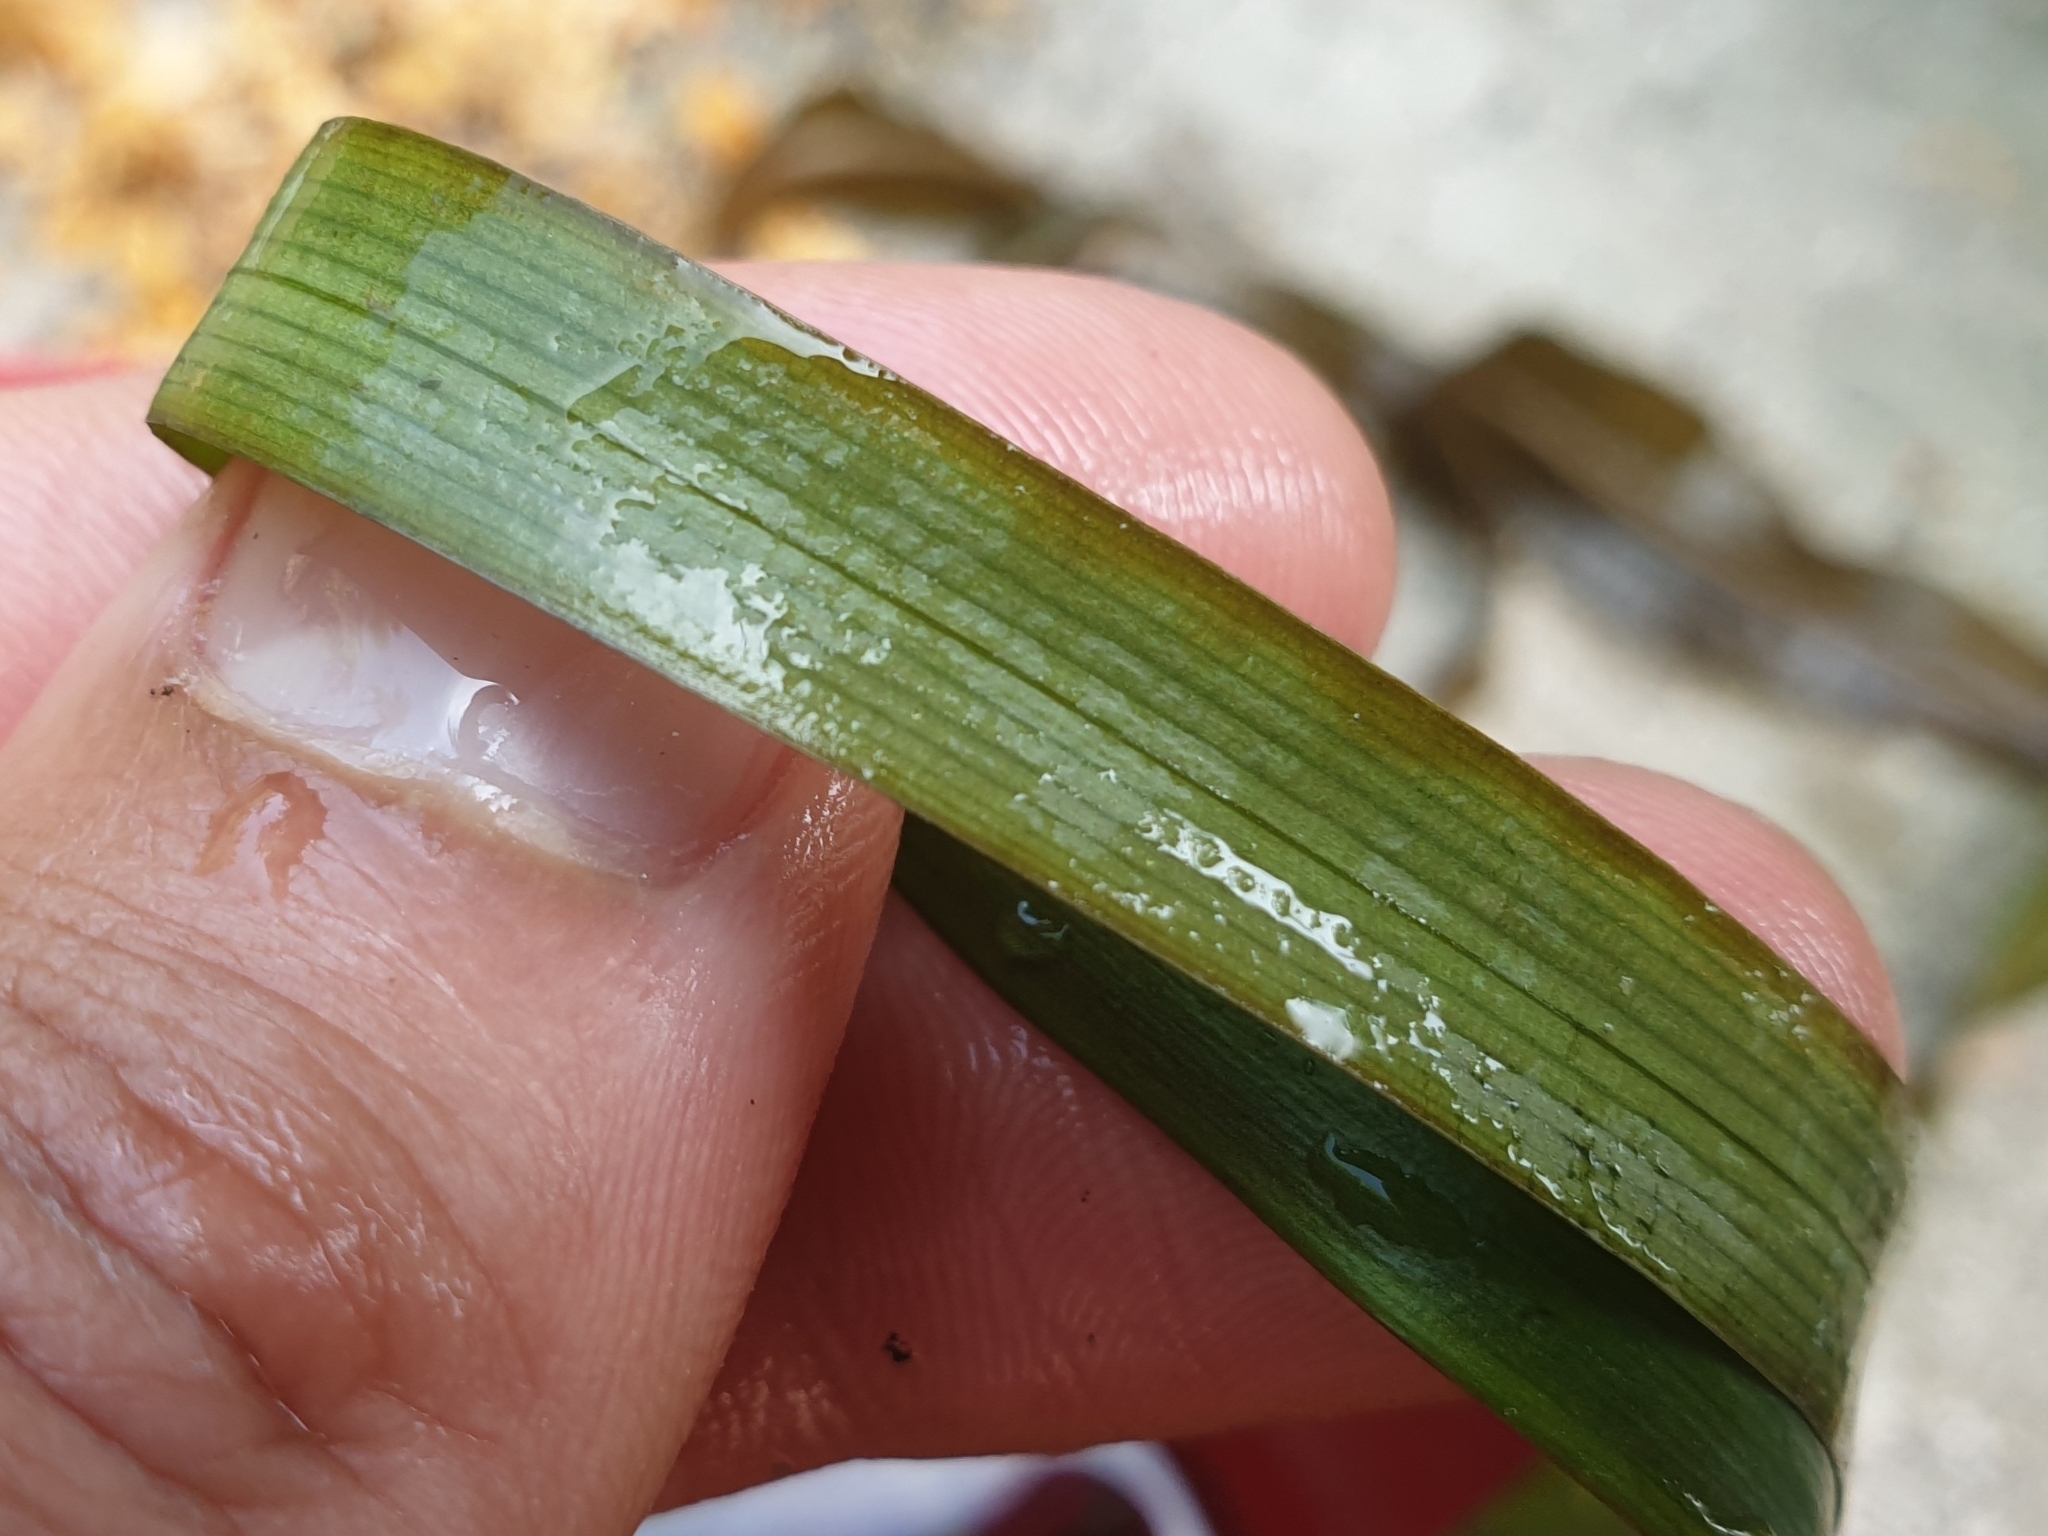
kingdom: Plantae
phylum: Tracheophyta
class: Liliopsida
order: Poales
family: Typhaceae
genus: Sparganium
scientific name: Sparganium emersum
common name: Unbranched bur-reed
